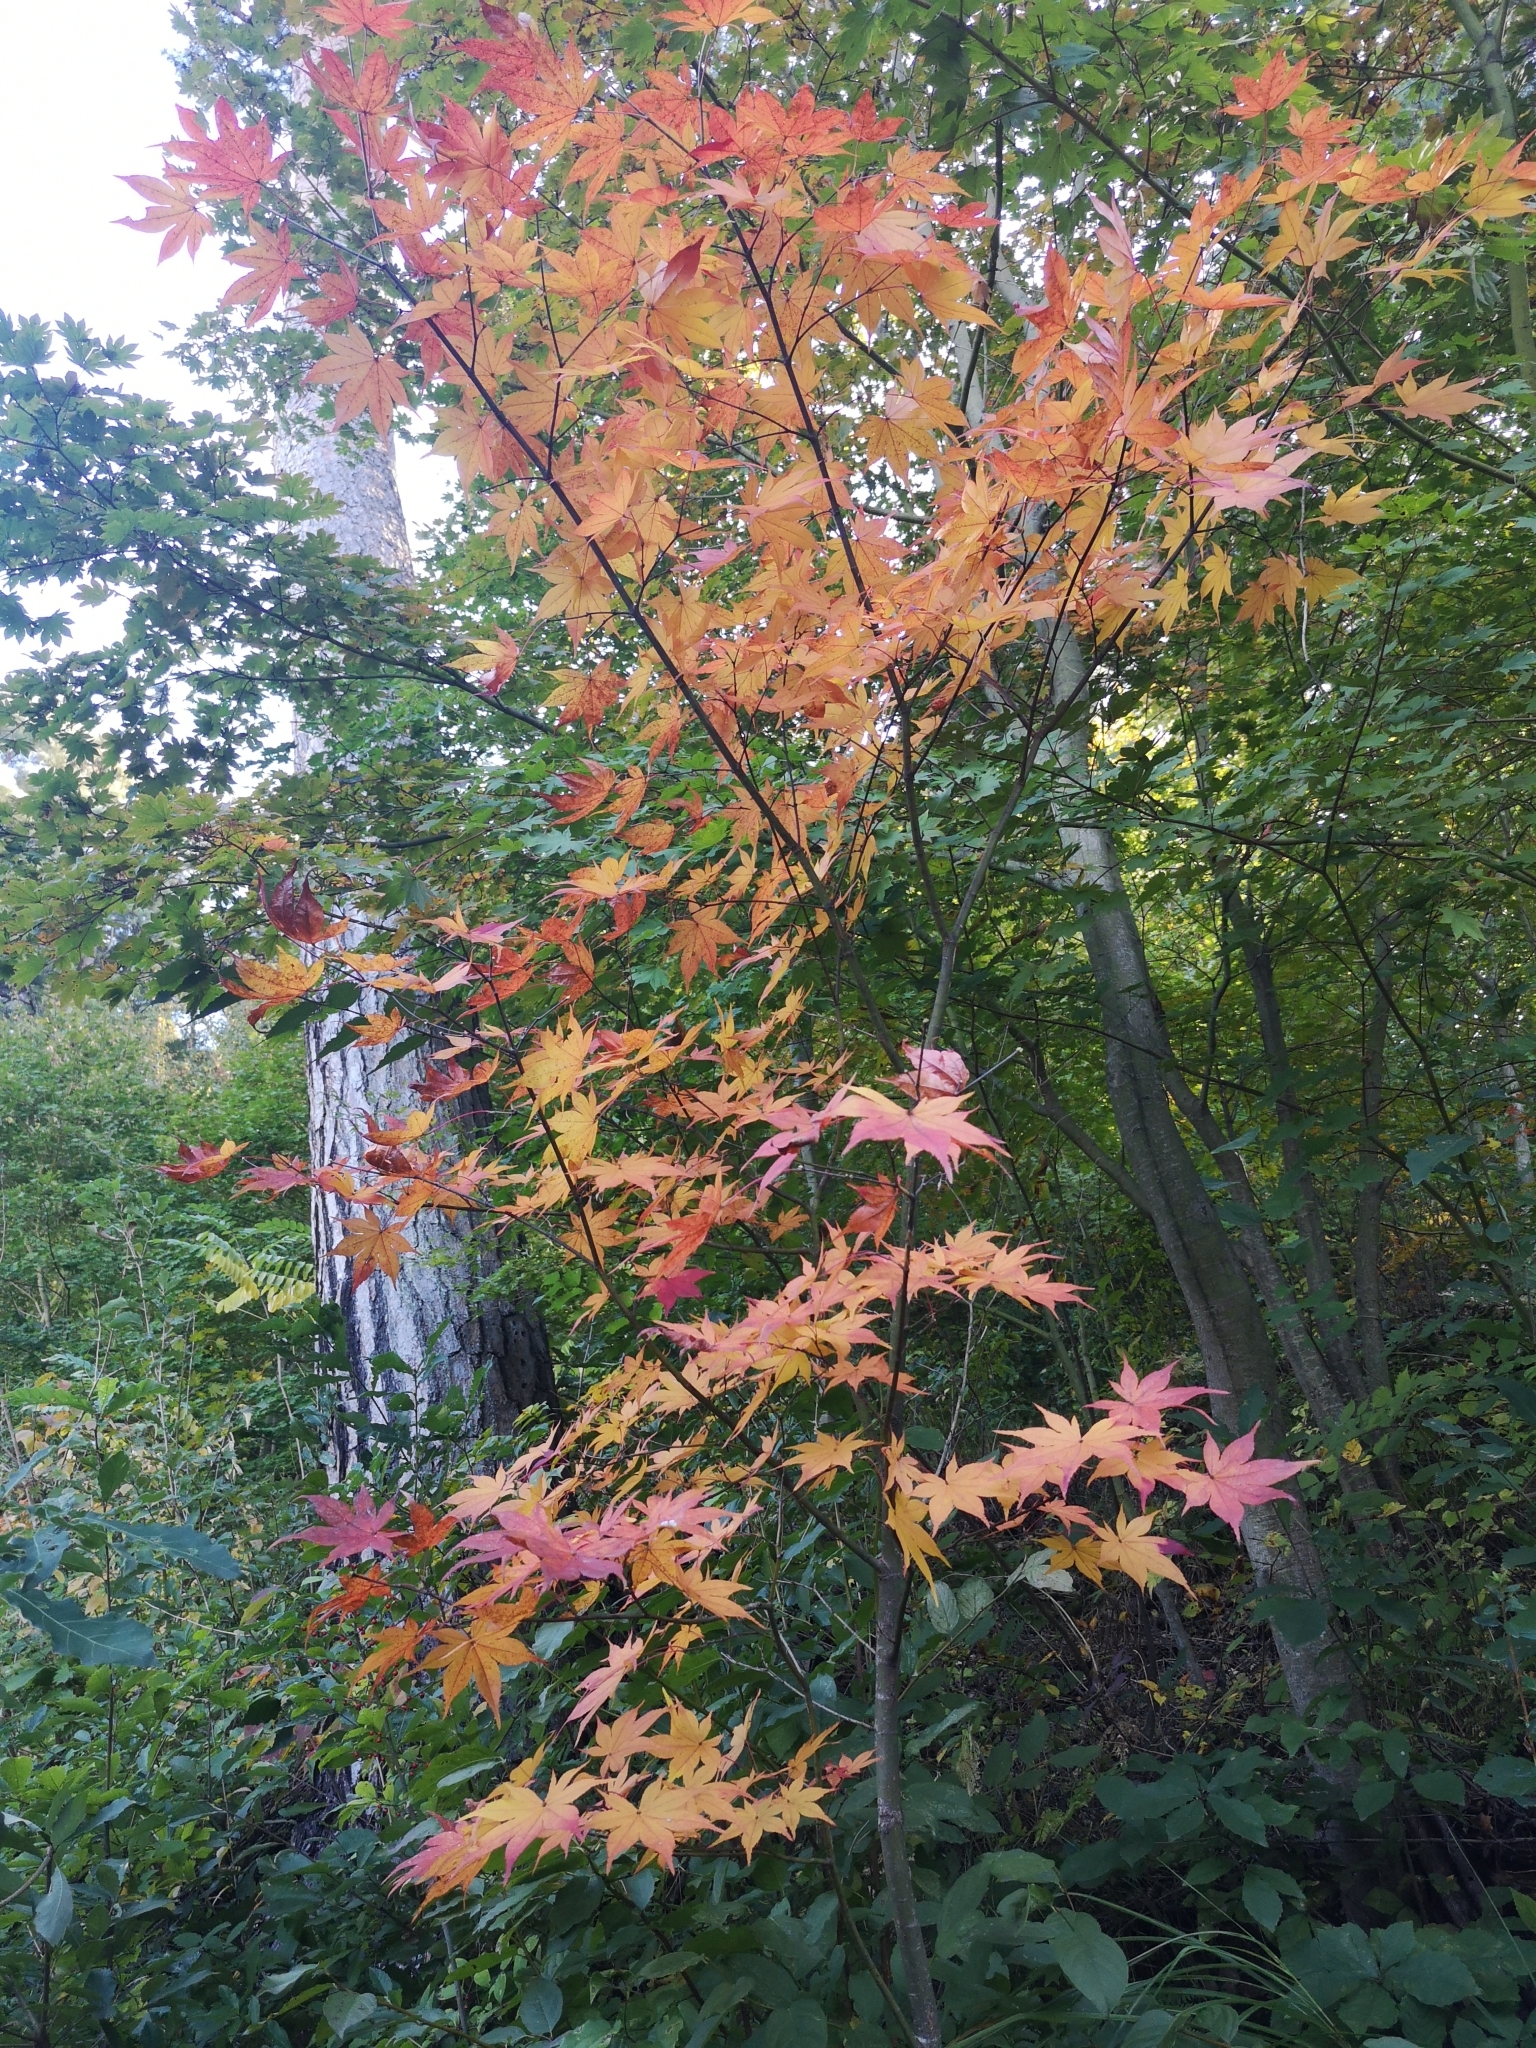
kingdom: Plantae
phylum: Tracheophyta
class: Magnoliopsida
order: Sapindales
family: Sapindaceae
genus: Acer
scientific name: Acer palmatum
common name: Japanese maple
